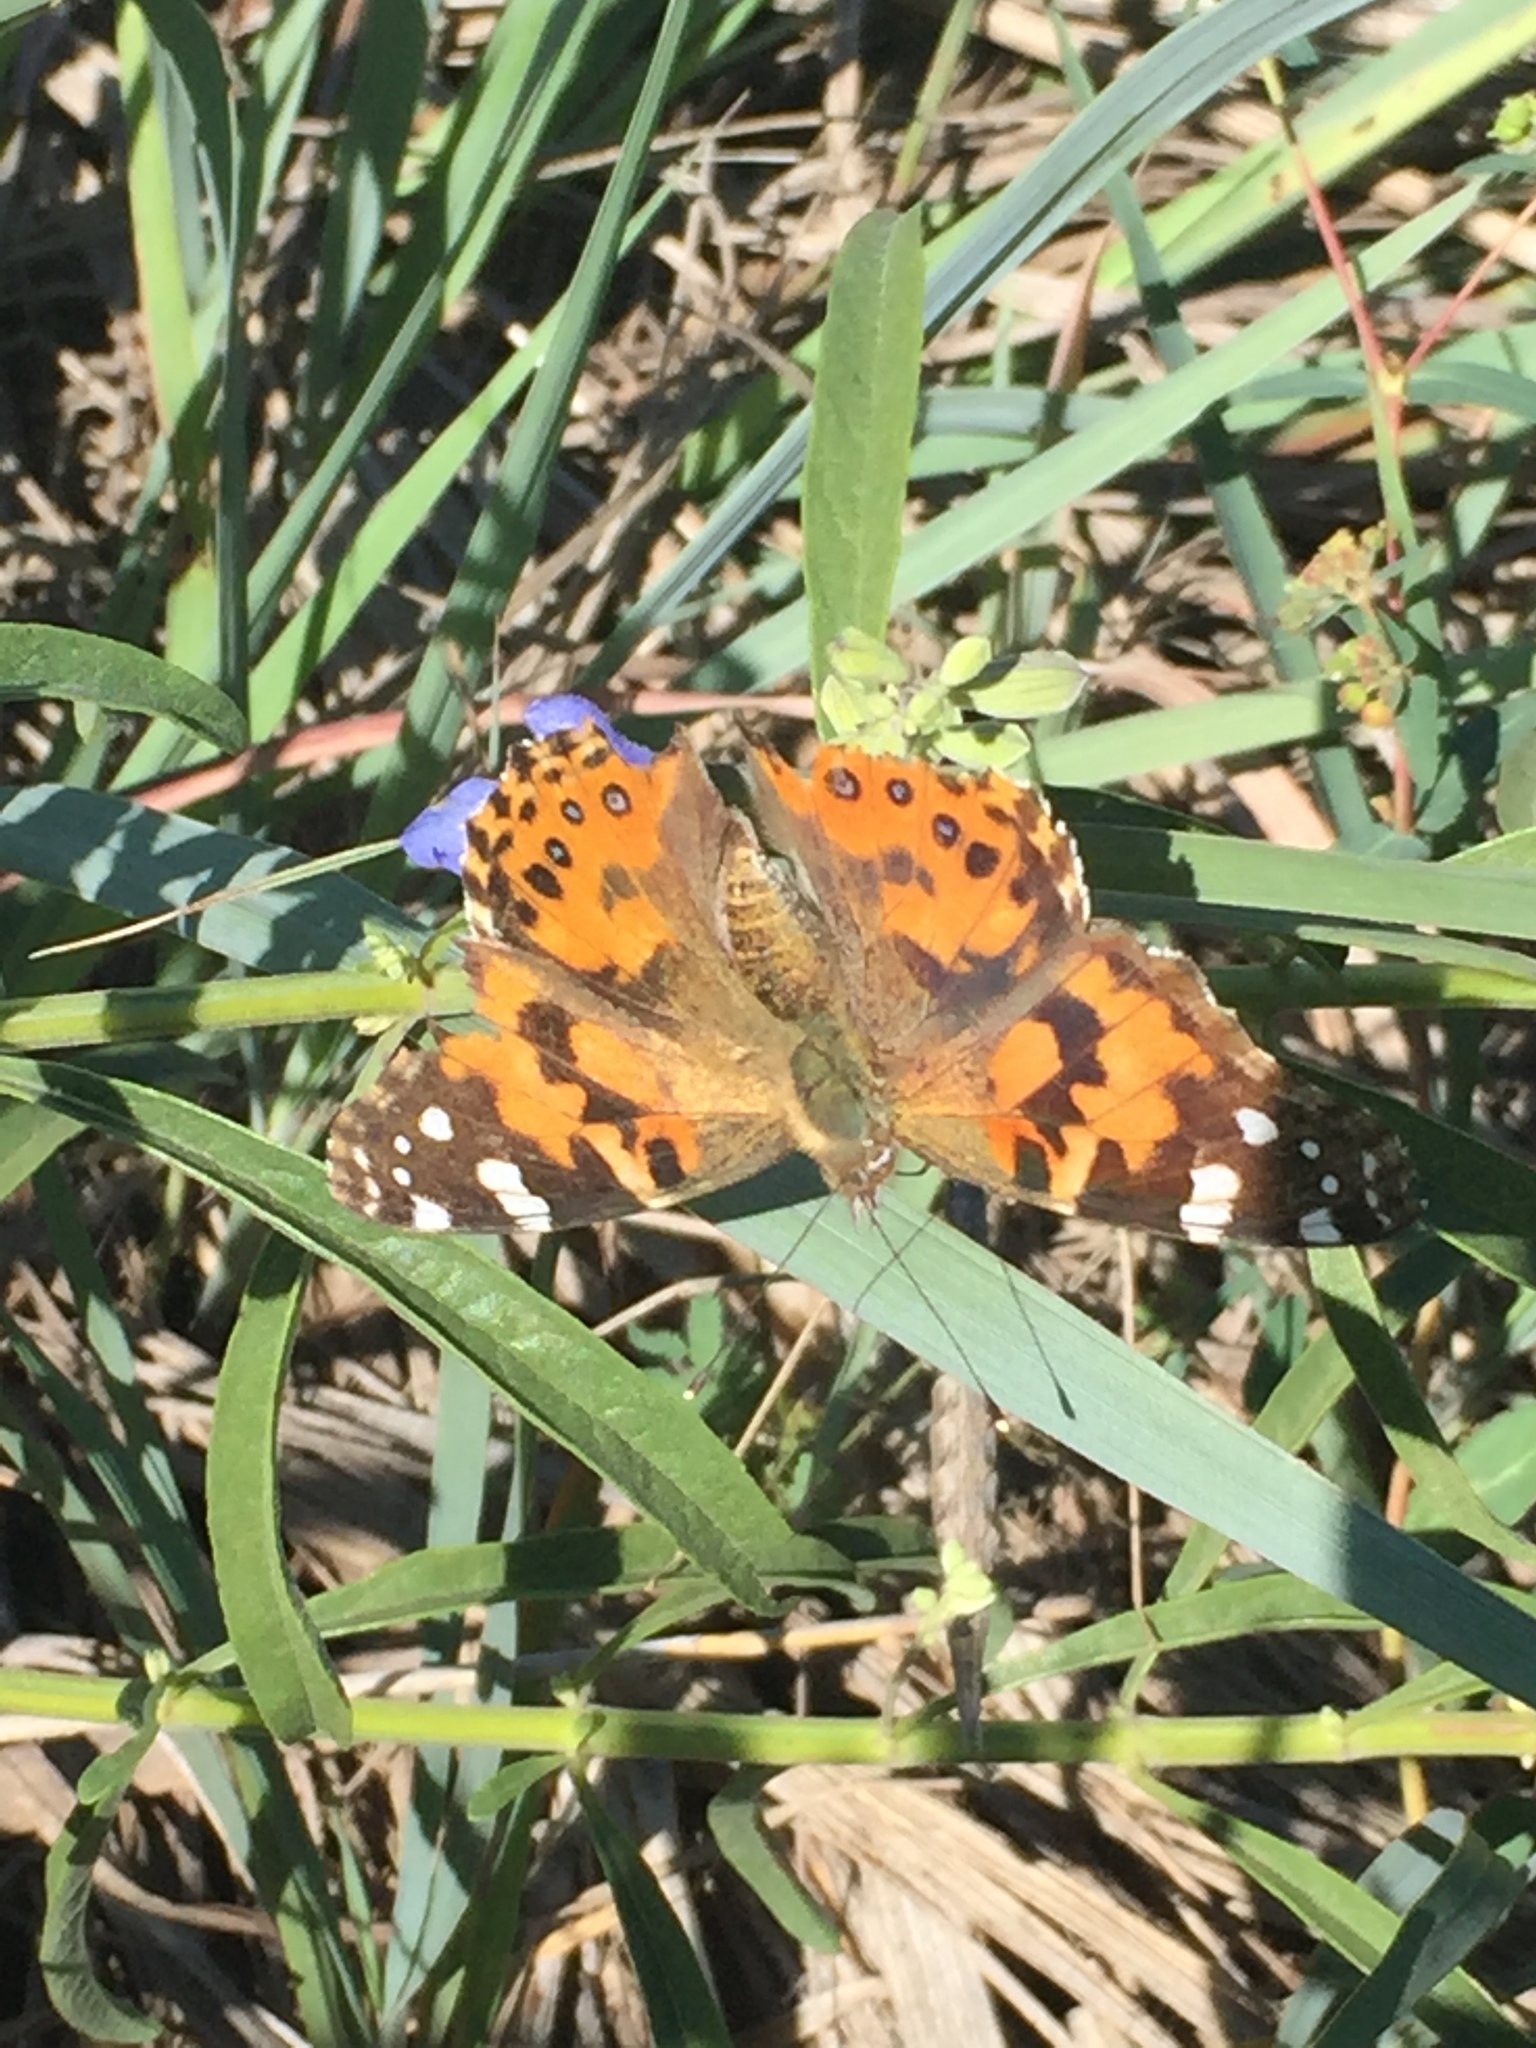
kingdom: Animalia
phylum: Arthropoda
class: Insecta
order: Lepidoptera
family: Nymphalidae
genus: Vanessa
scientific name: Vanessa cardui
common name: Painted lady
